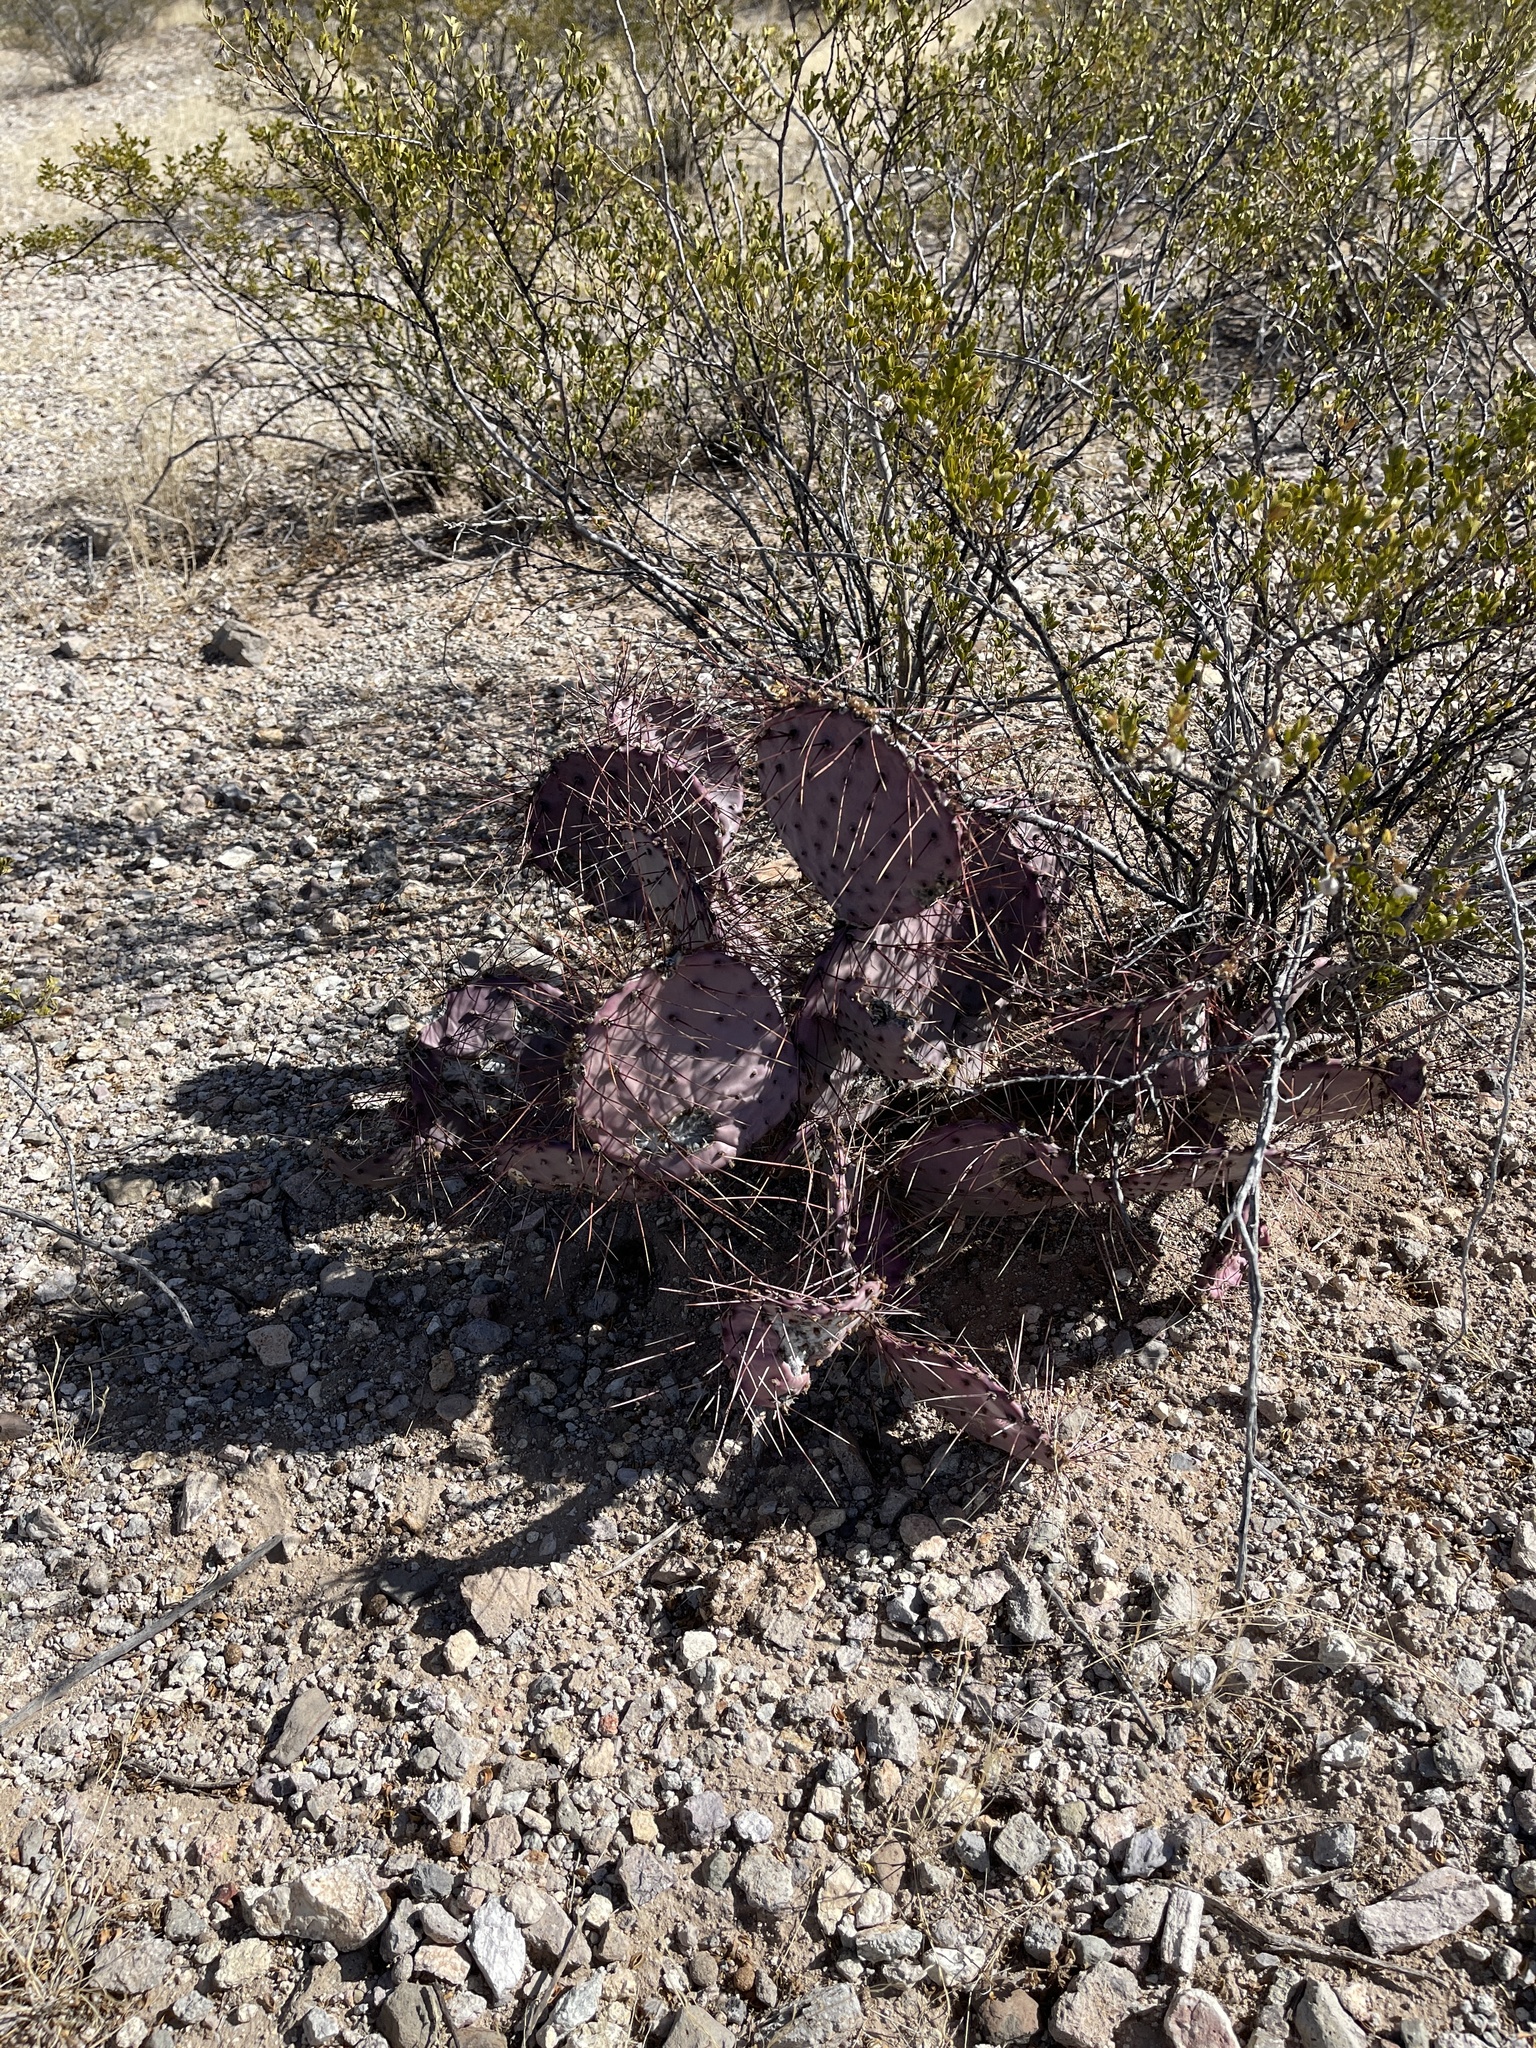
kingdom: Plantae
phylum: Tracheophyta
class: Magnoliopsida
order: Caryophyllales
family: Cactaceae
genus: Opuntia
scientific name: Opuntia macrocentra
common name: Purple prickly-pear
